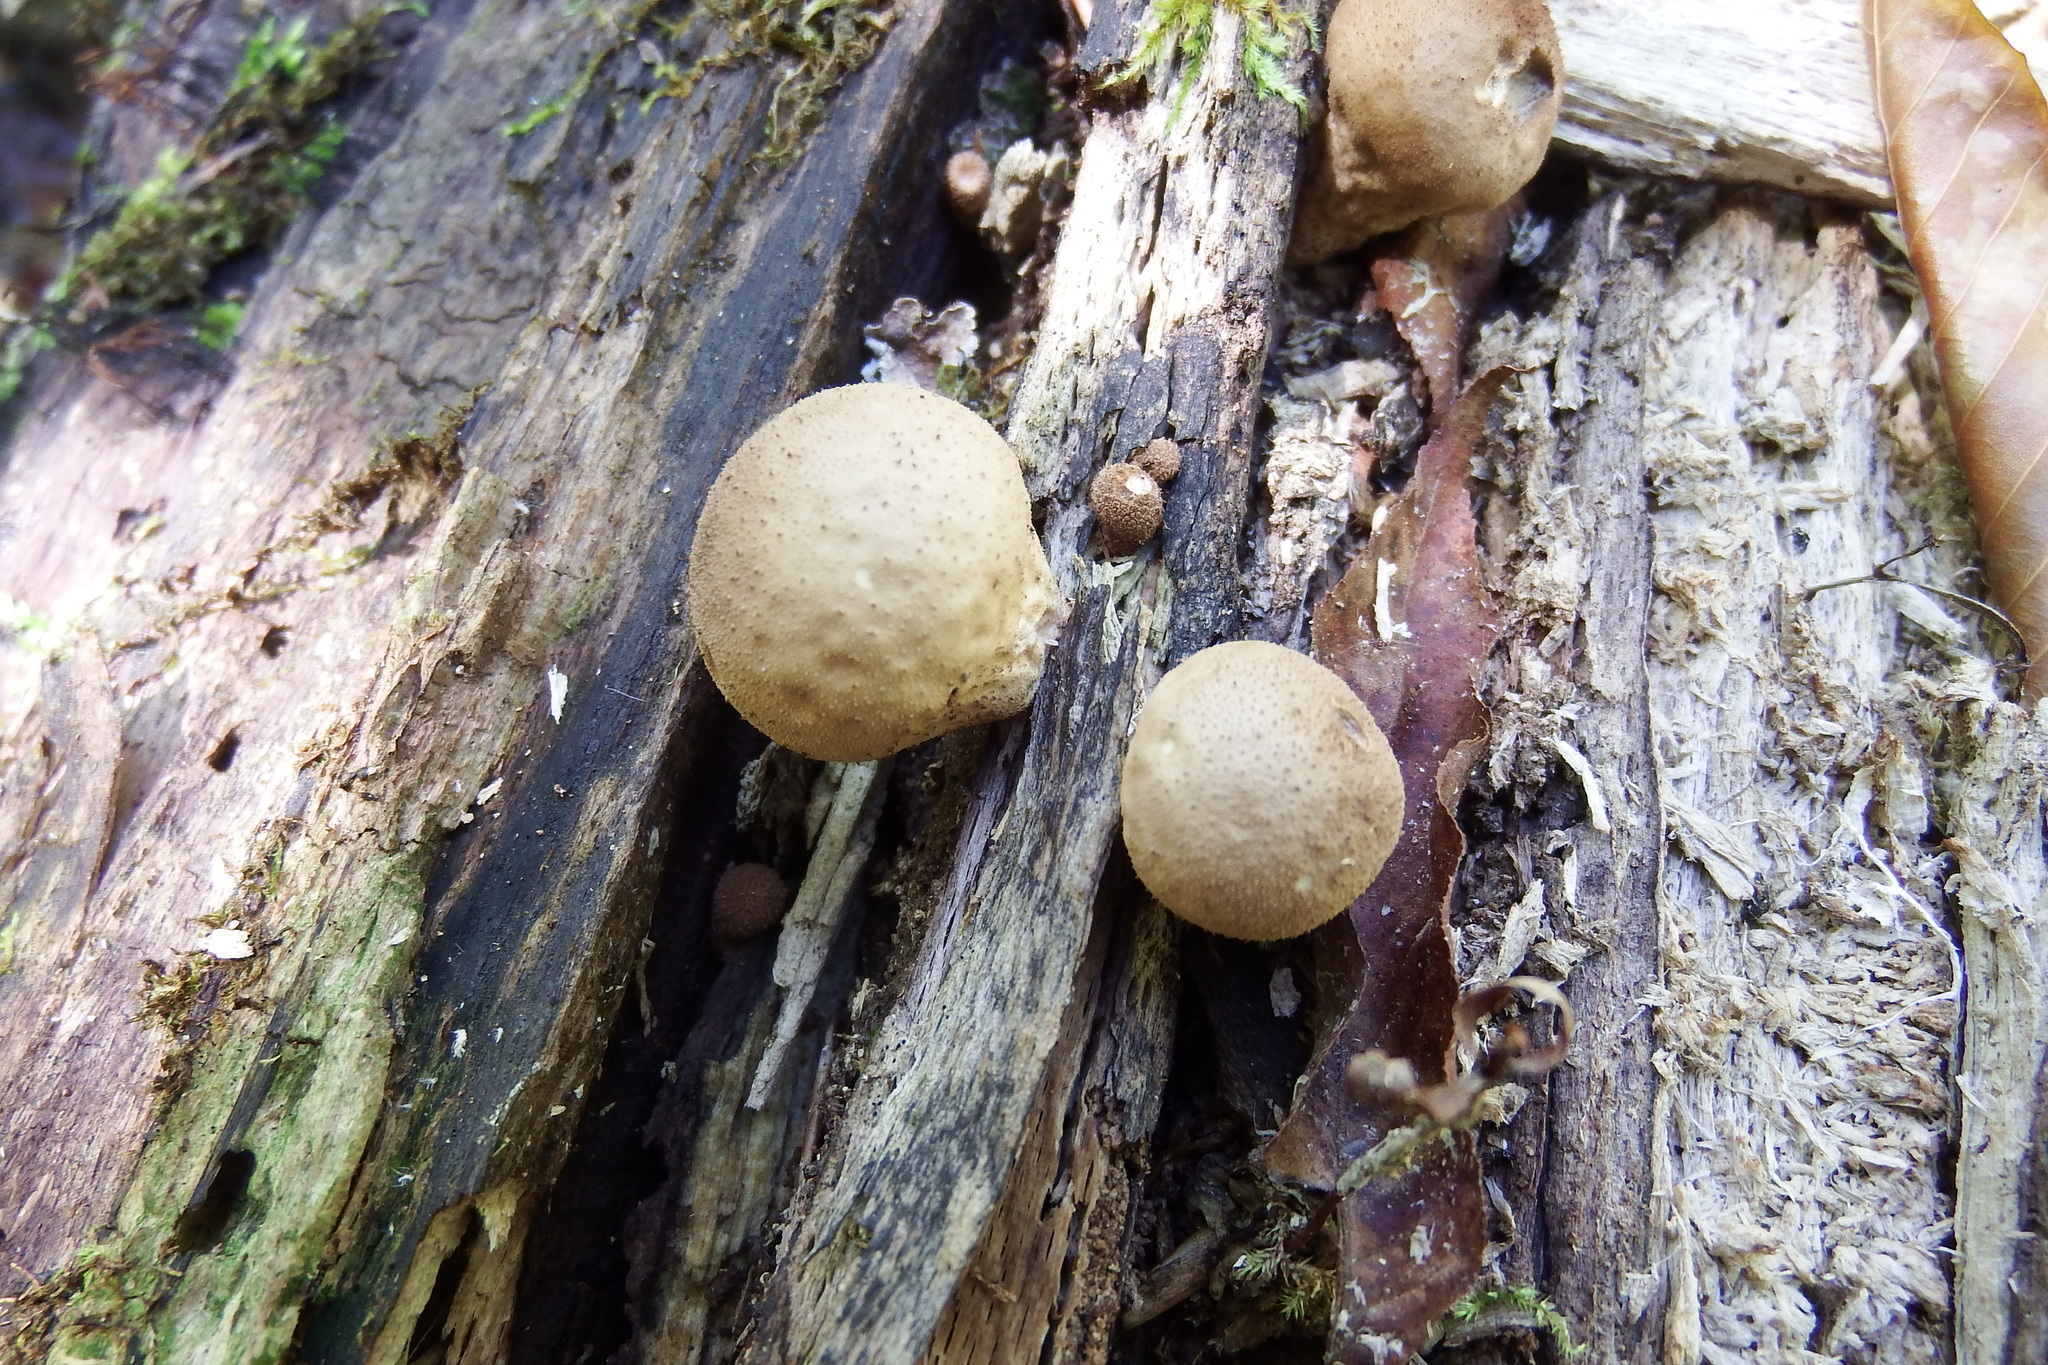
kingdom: Fungi
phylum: Basidiomycota
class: Agaricomycetes
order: Agaricales
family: Lycoperdaceae
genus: Apioperdon
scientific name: Apioperdon pyriforme
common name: Pear-shaped puffball
